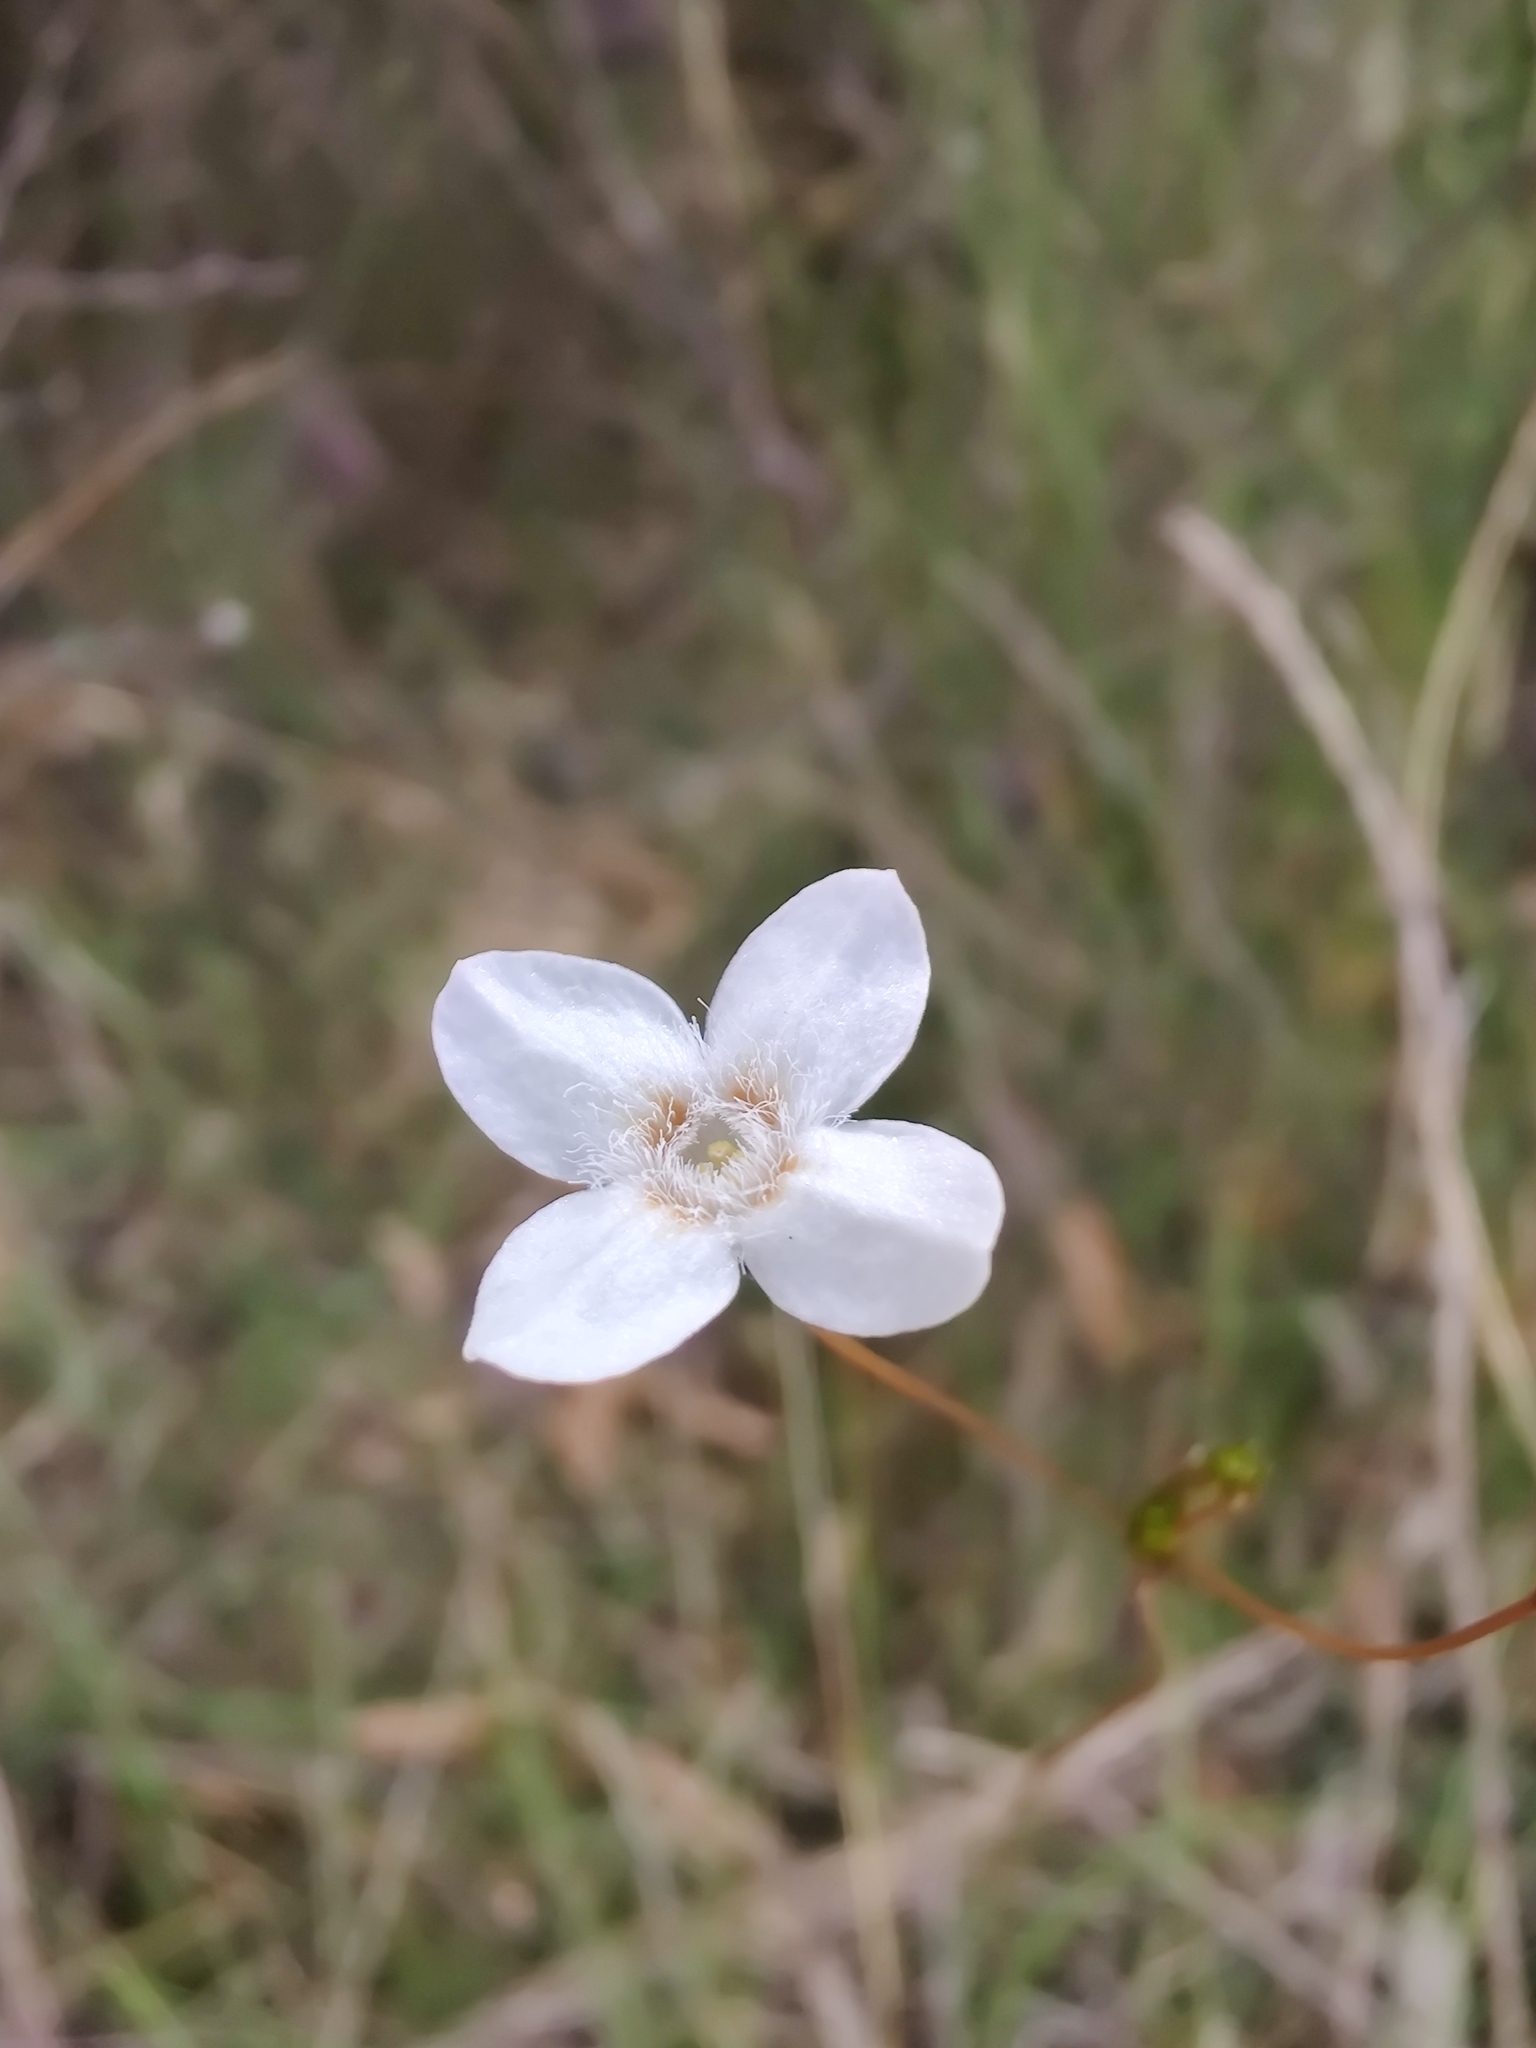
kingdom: Plantae
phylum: Tracheophyta
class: Magnoliopsida
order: Gentianales
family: Loganiaceae
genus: Mitrasacme
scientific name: Mitrasacme polymorpha
